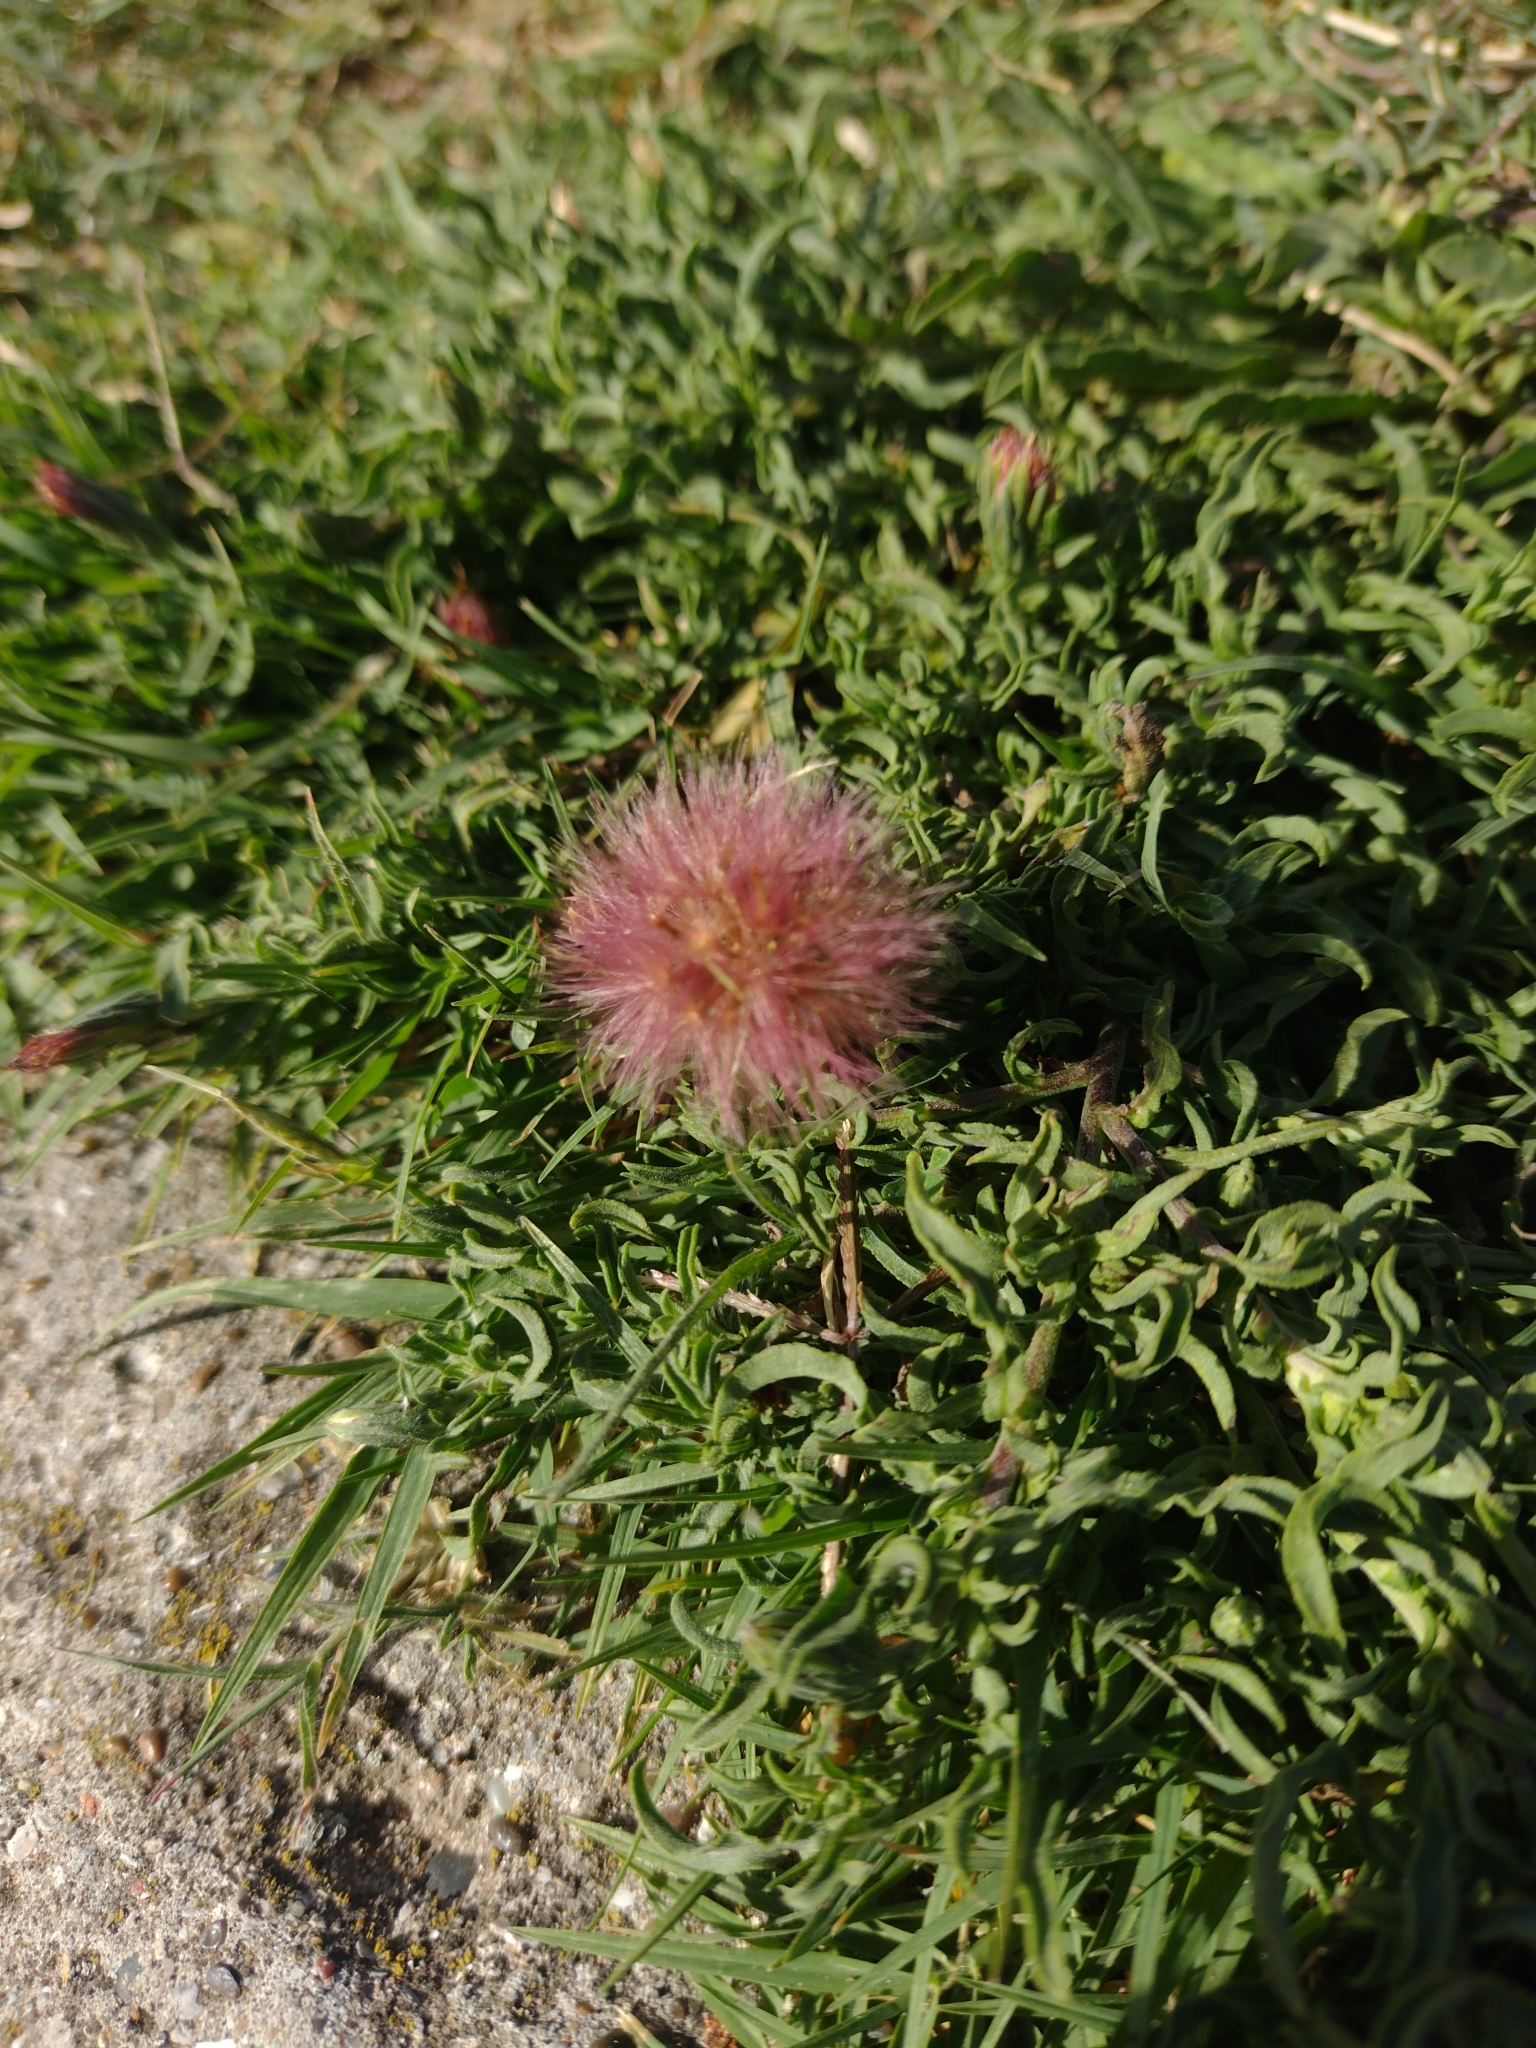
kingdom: Plantae
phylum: Tracheophyta
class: Magnoliopsida
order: Asterales
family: Asteraceae
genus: Noticastrum
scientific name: Noticastrum diffusum
